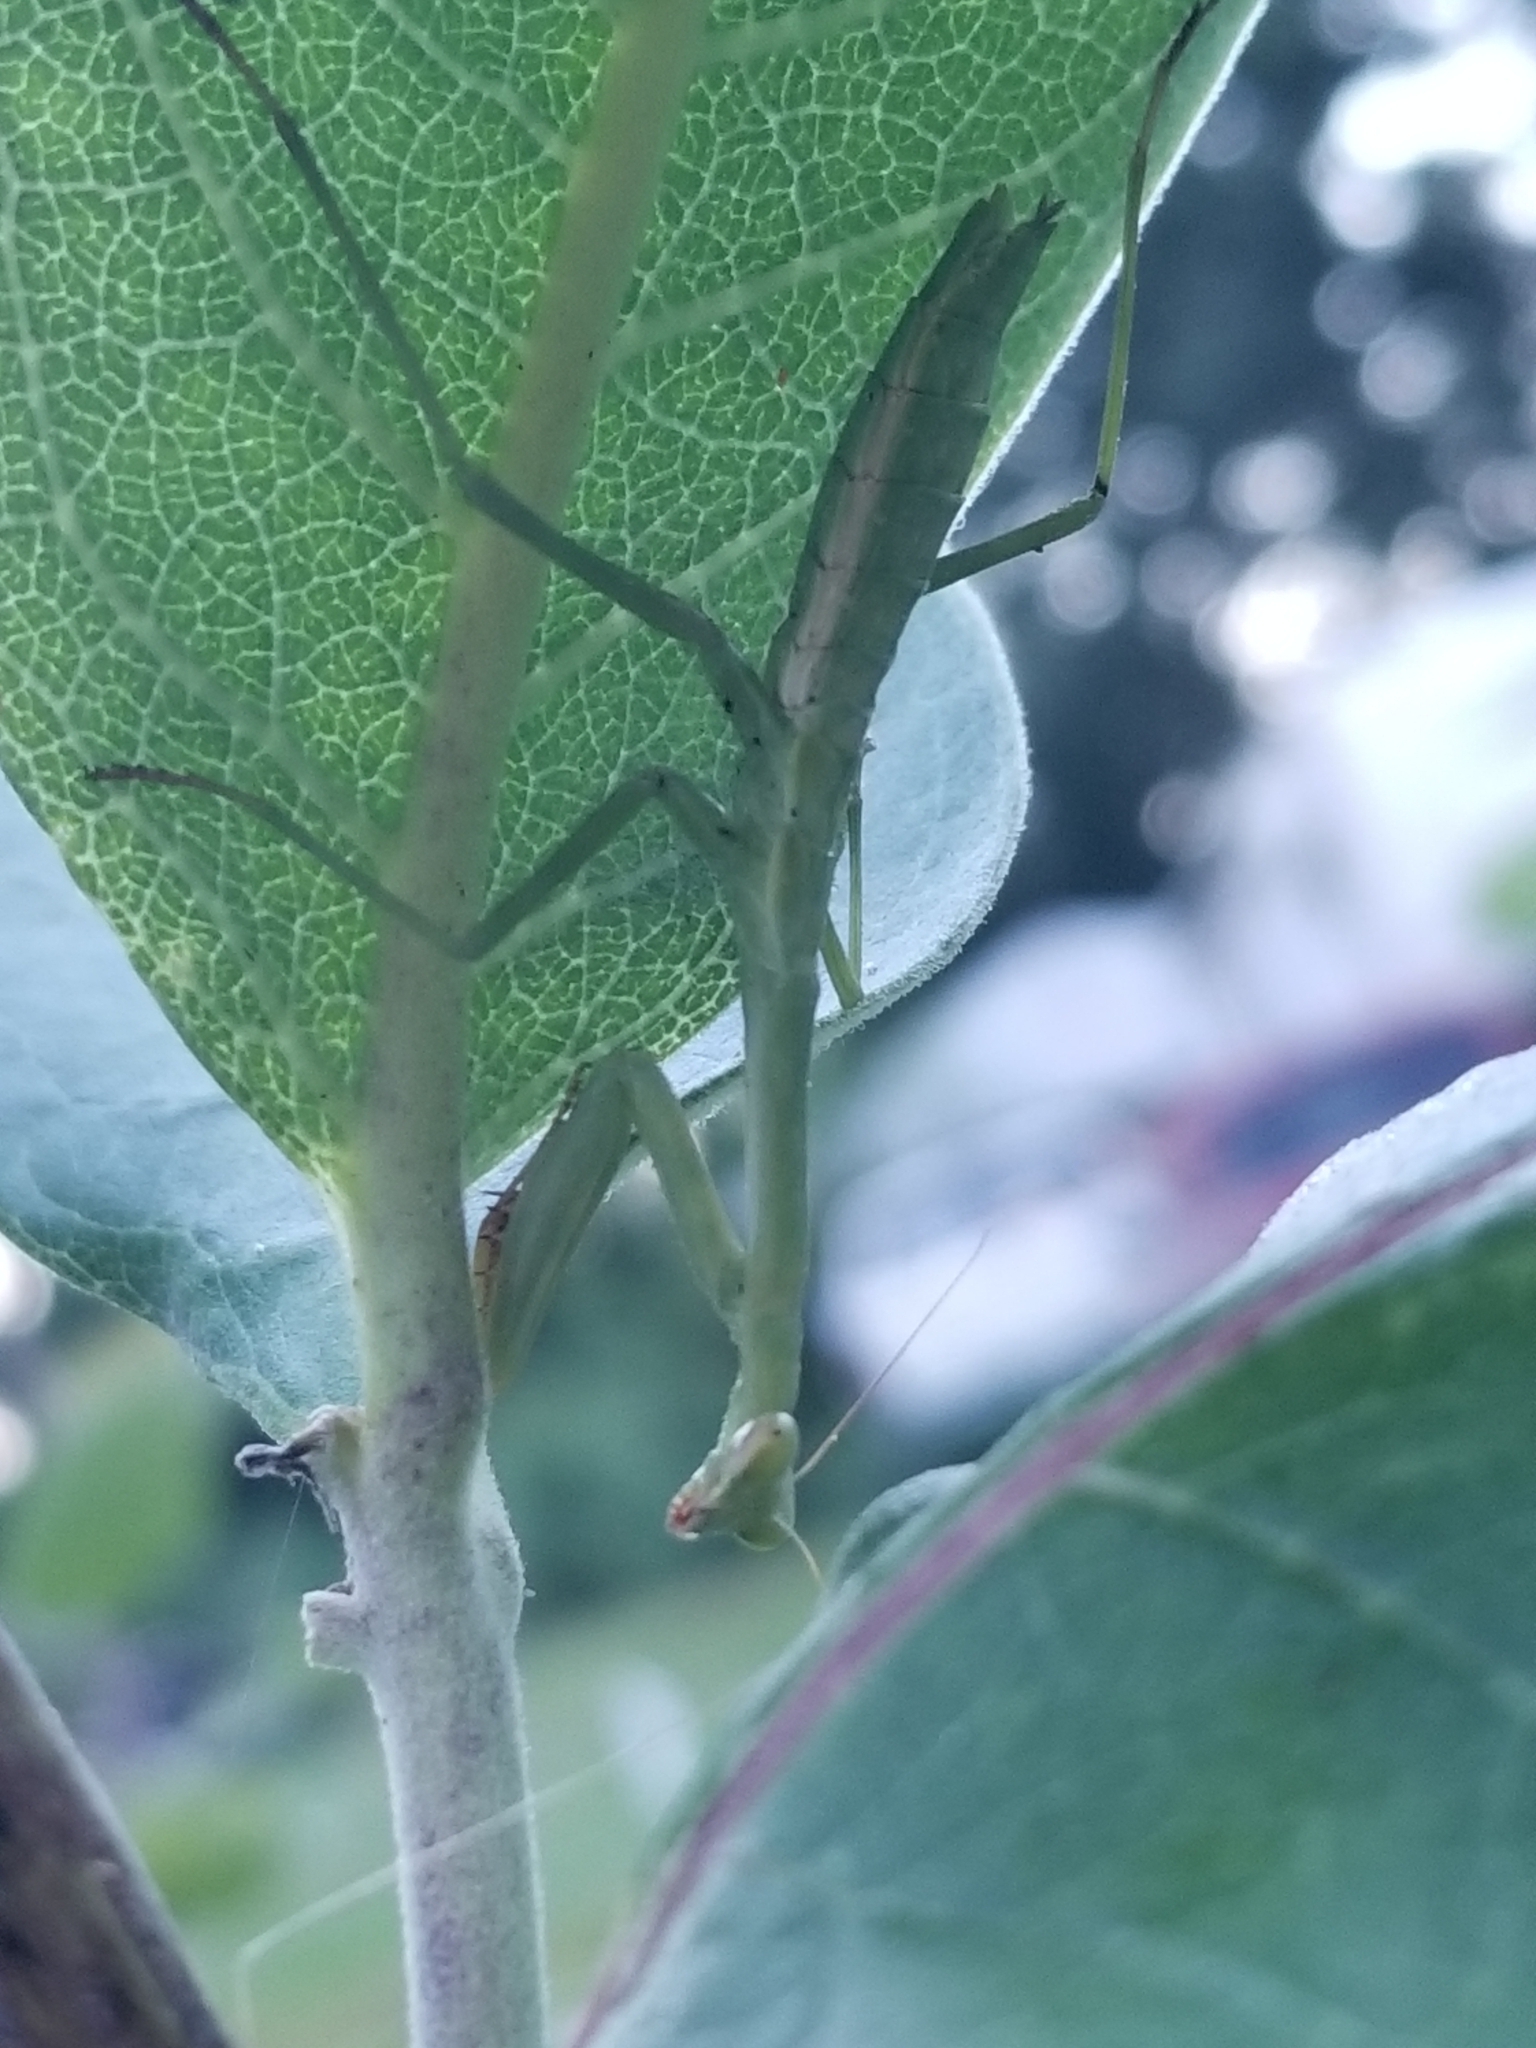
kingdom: Animalia
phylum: Arthropoda
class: Insecta
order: Mantodea
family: Mantidae
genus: Stagmomantis
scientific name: Stagmomantis carolina
